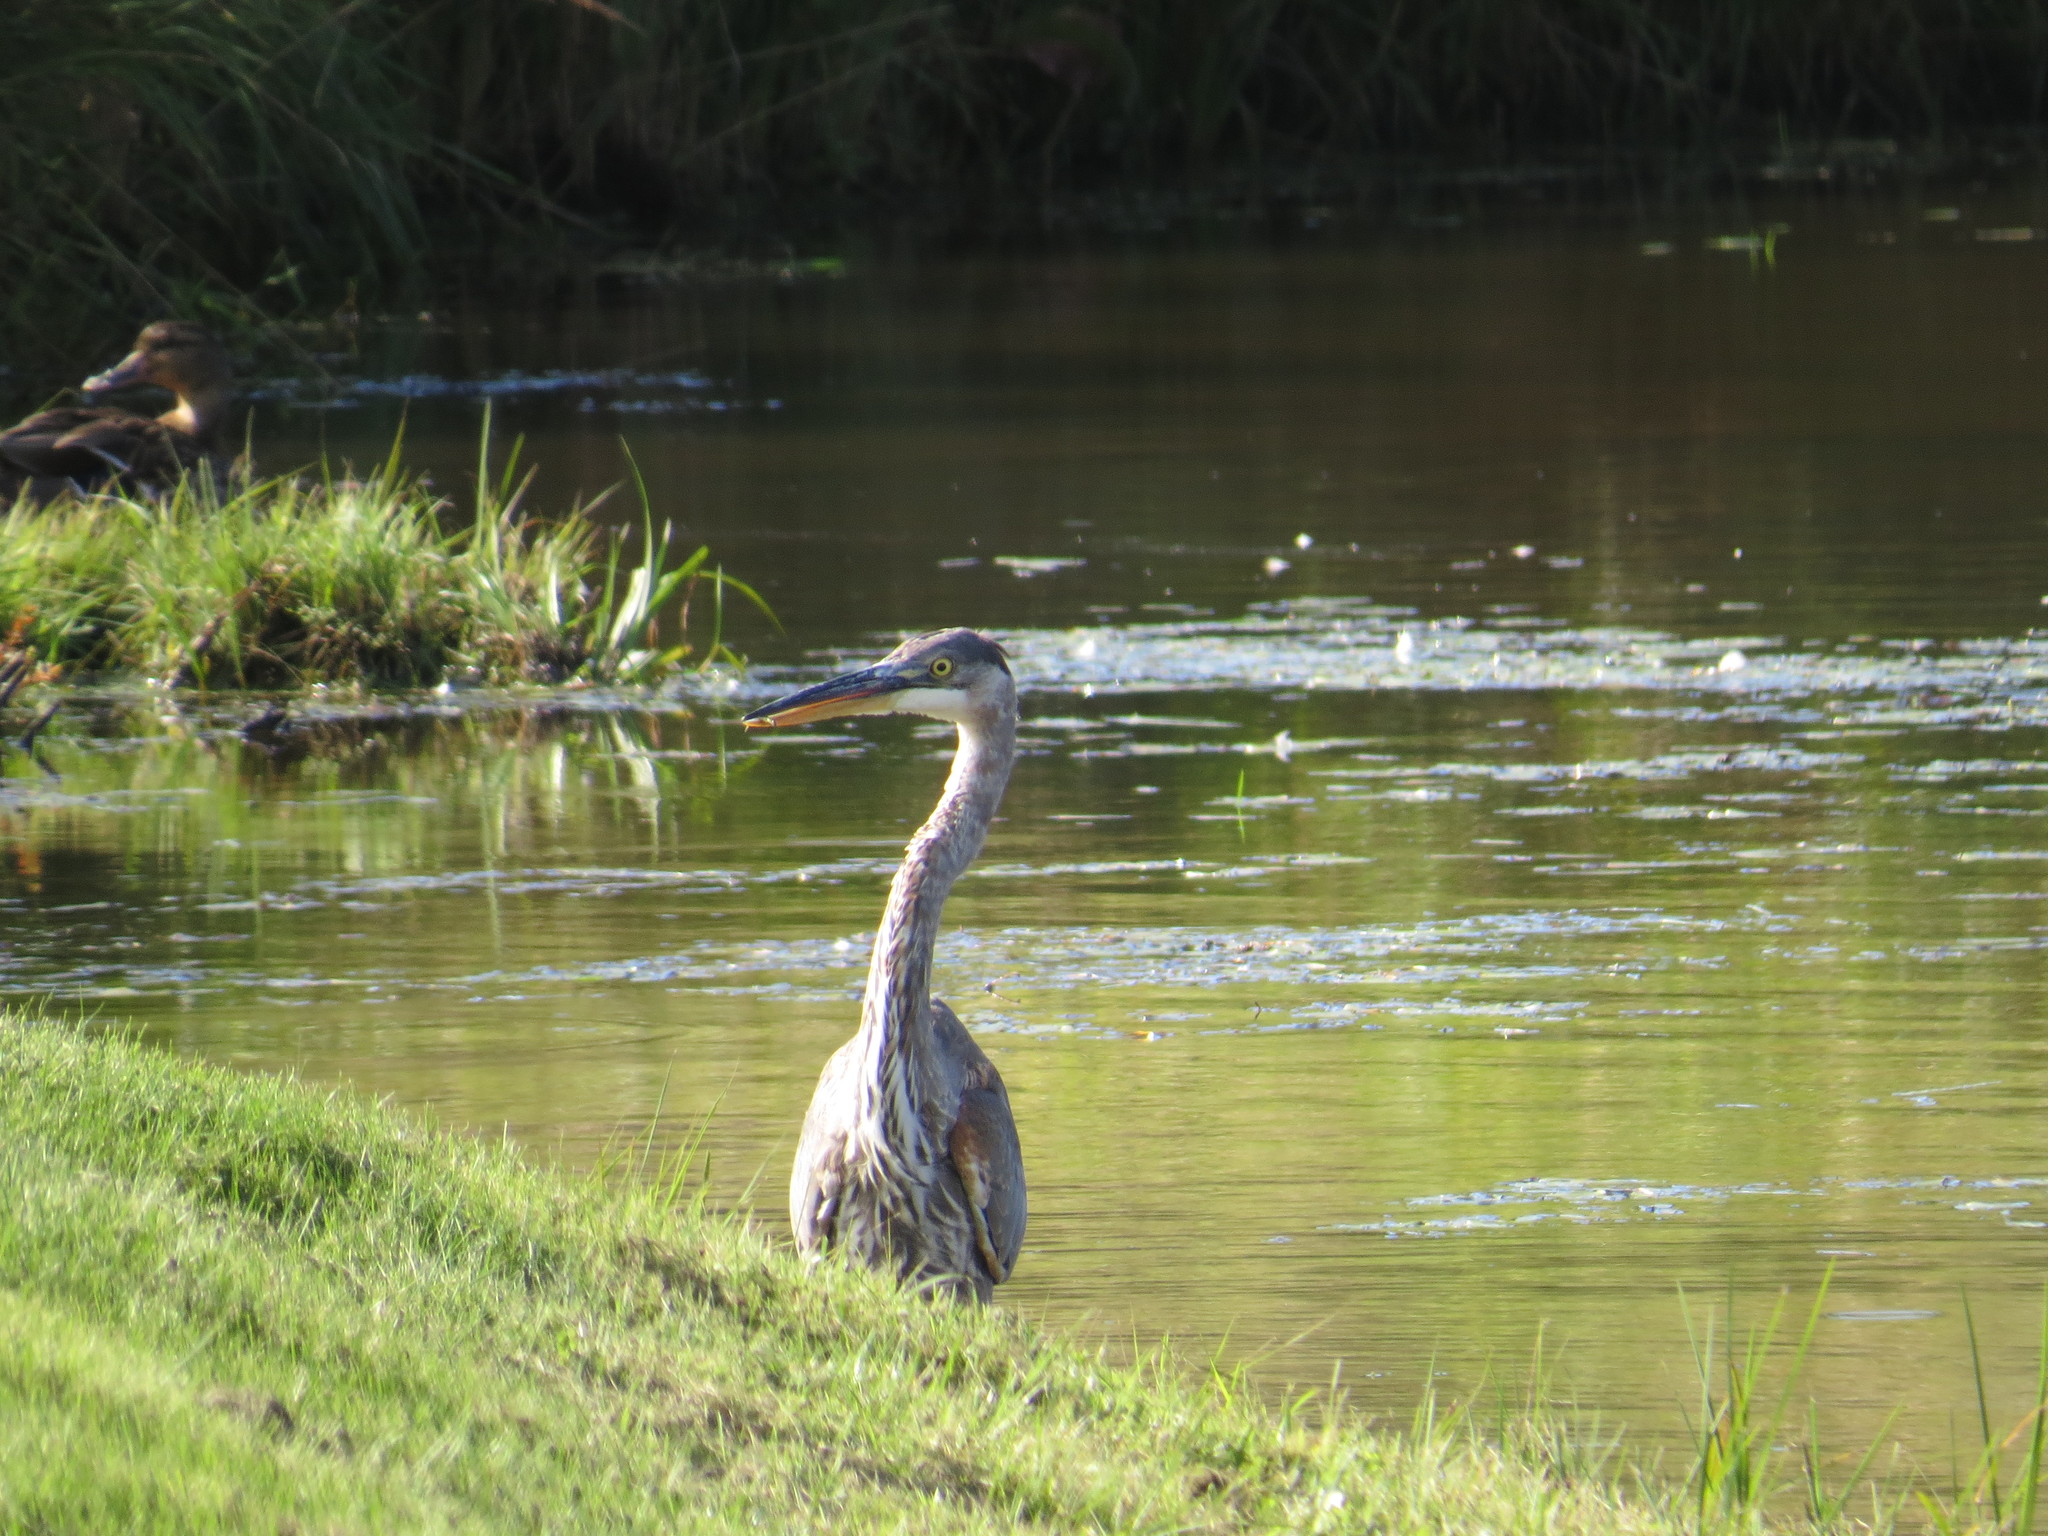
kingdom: Animalia
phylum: Chordata
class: Aves
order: Pelecaniformes
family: Ardeidae
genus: Ardea
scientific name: Ardea herodias
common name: Great blue heron
